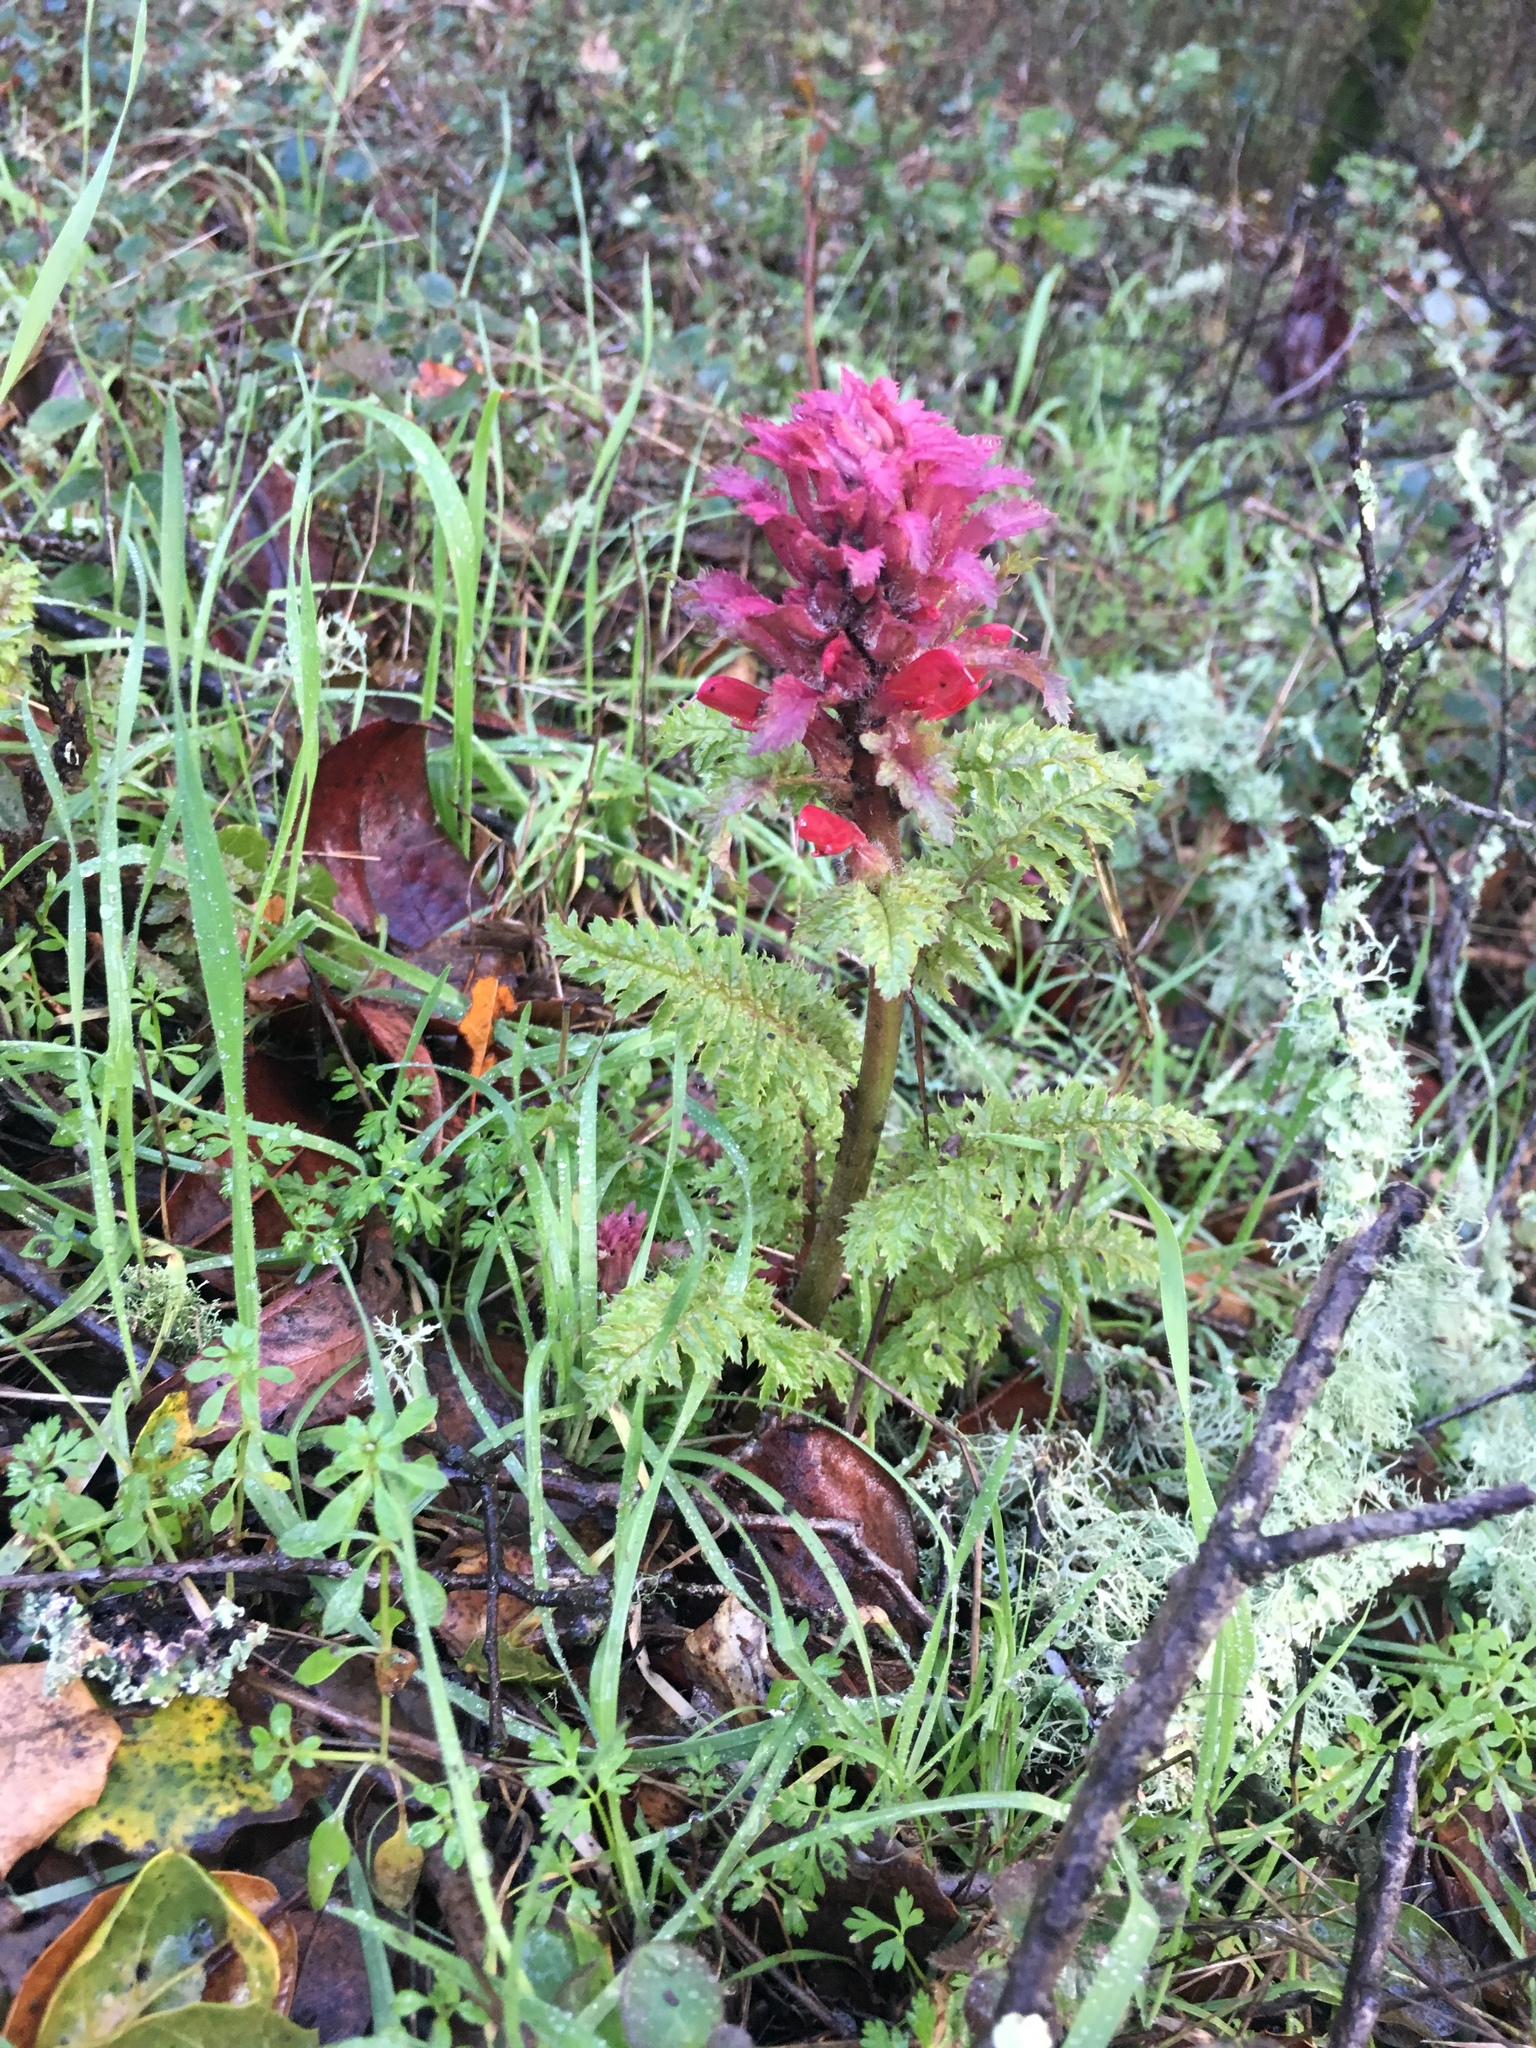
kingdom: Plantae
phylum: Tracheophyta
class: Magnoliopsida
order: Lamiales
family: Orobanchaceae
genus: Pedicularis
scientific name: Pedicularis densiflora
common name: Indian warrior
